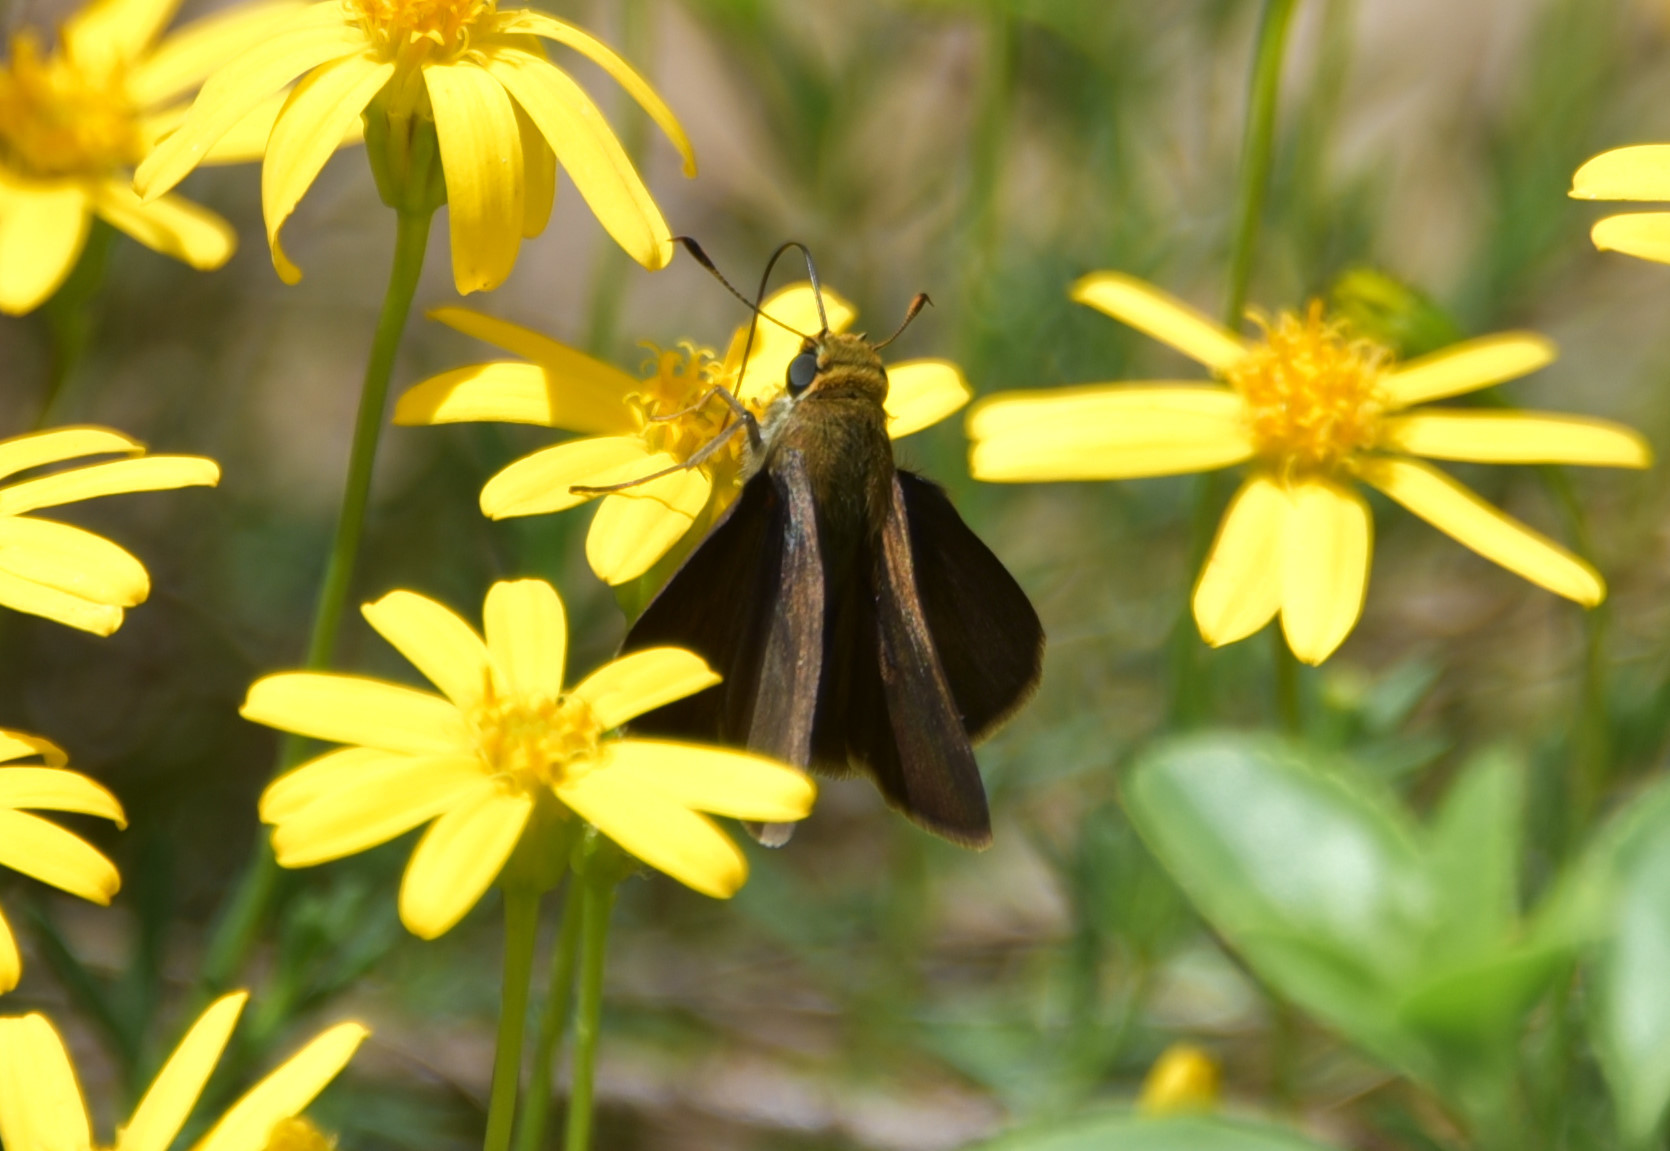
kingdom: Animalia
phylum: Arthropoda
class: Insecta
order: Lepidoptera
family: Hesperiidae
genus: Euphyes
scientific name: Euphyes vestris
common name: Dun skipper
